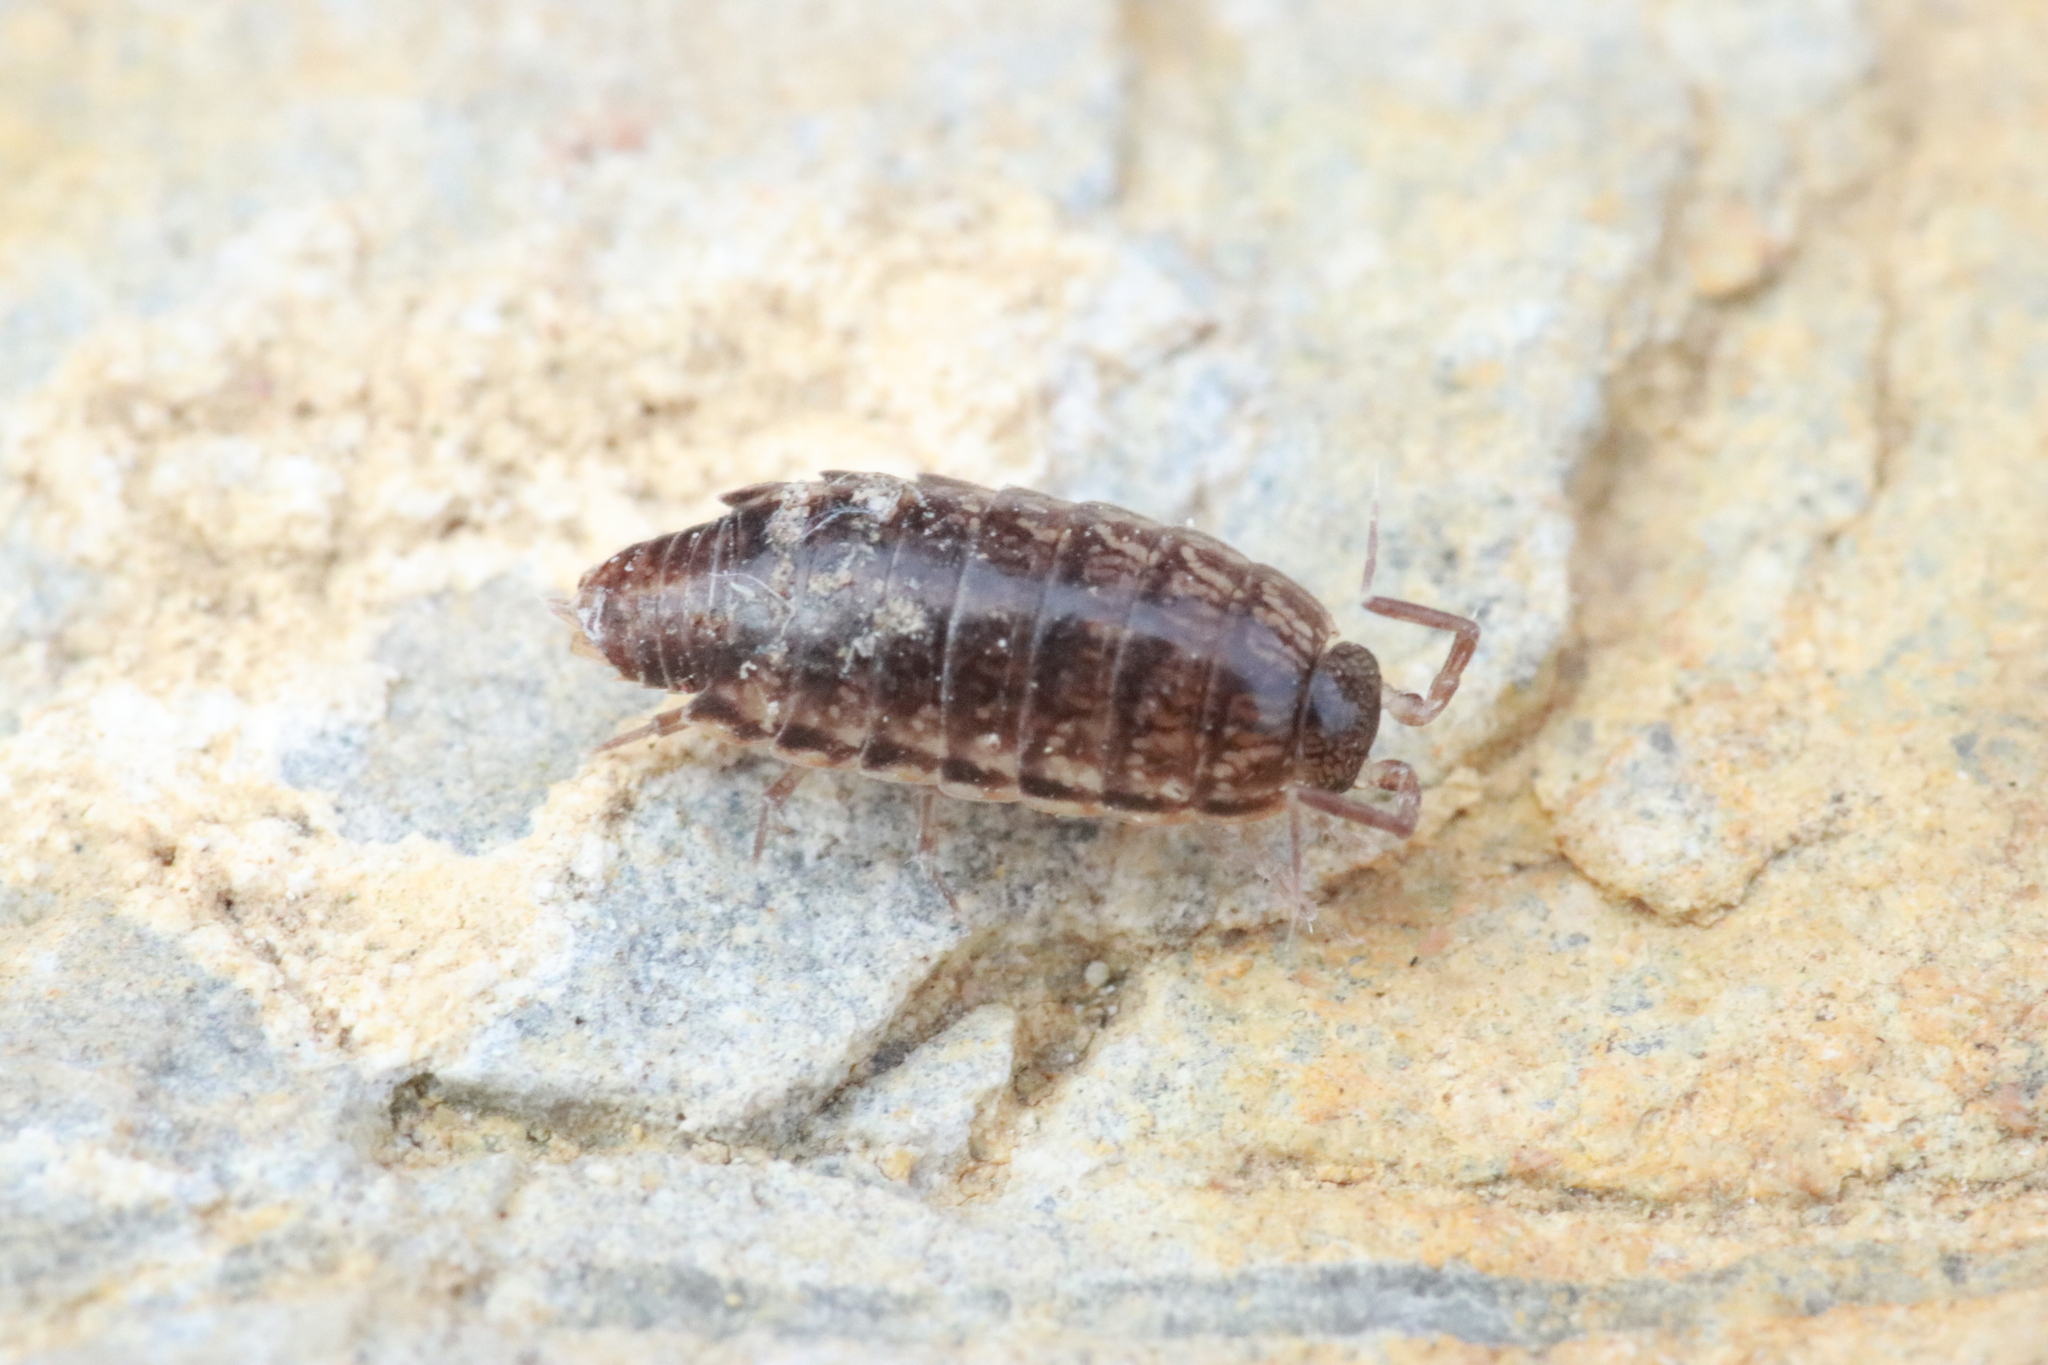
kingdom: Animalia
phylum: Arthropoda
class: Malacostraca
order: Isopoda
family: Philosciidae
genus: Chaetophiloscia
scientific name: Chaetophiloscia elongata
